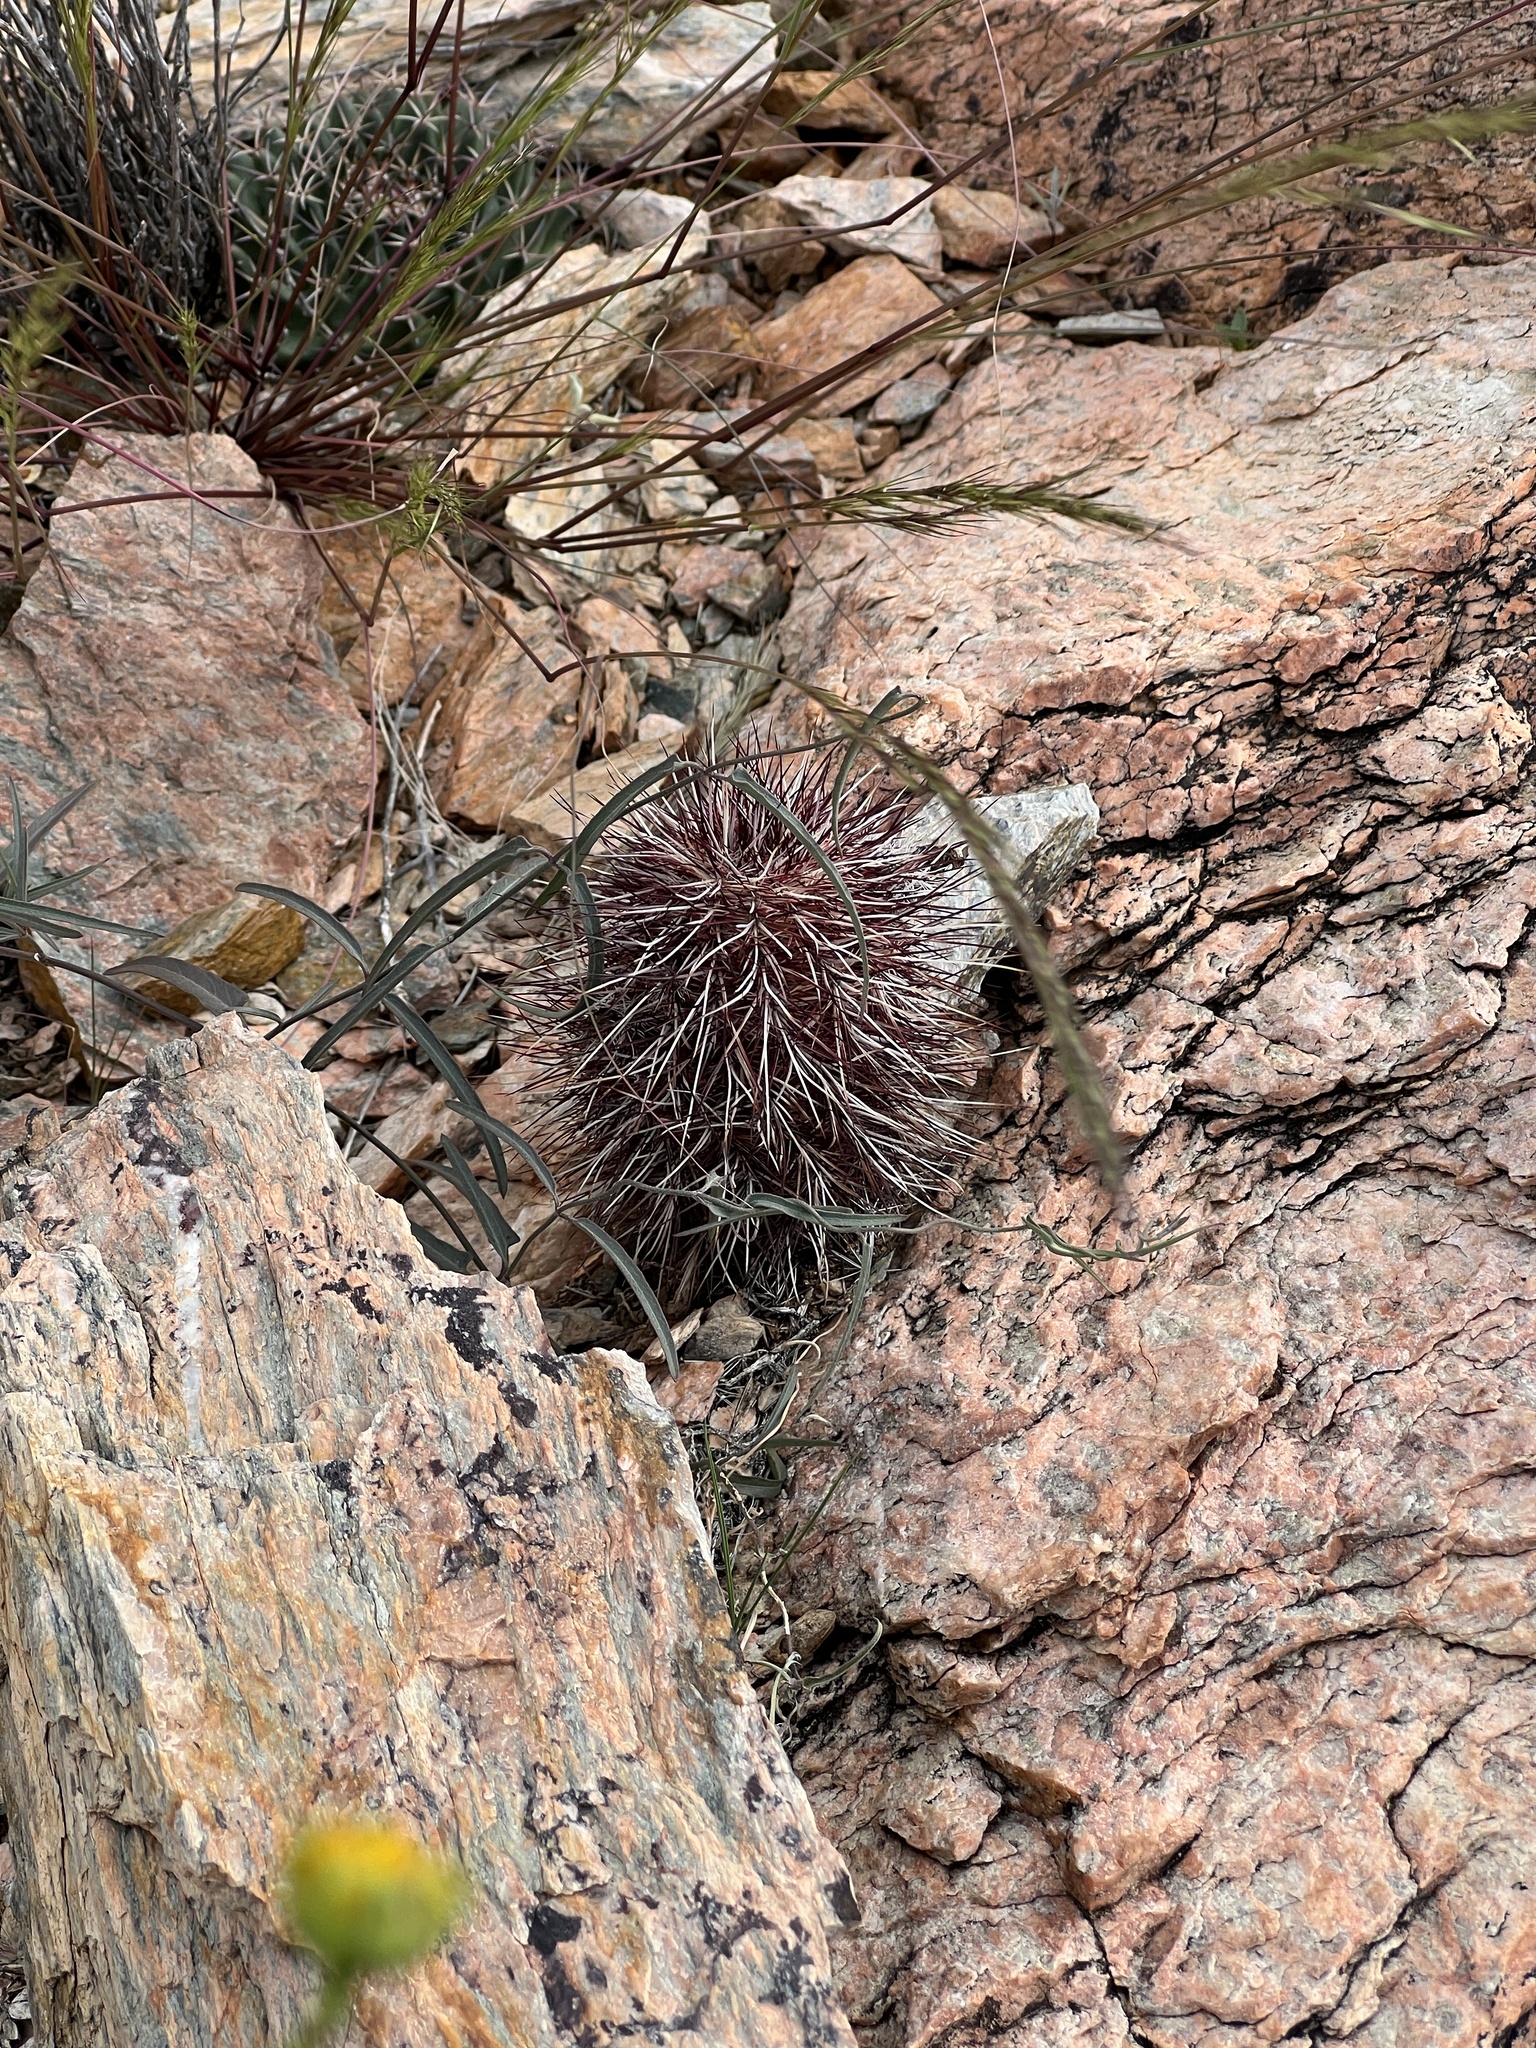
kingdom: Plantae
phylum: Tracheophyta
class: Magnoliopsida
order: Caryophyllales
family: Cactaceae
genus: Echinocereus
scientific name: Echinocereus viridiflorus
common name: Nylon hedgehog cactus
